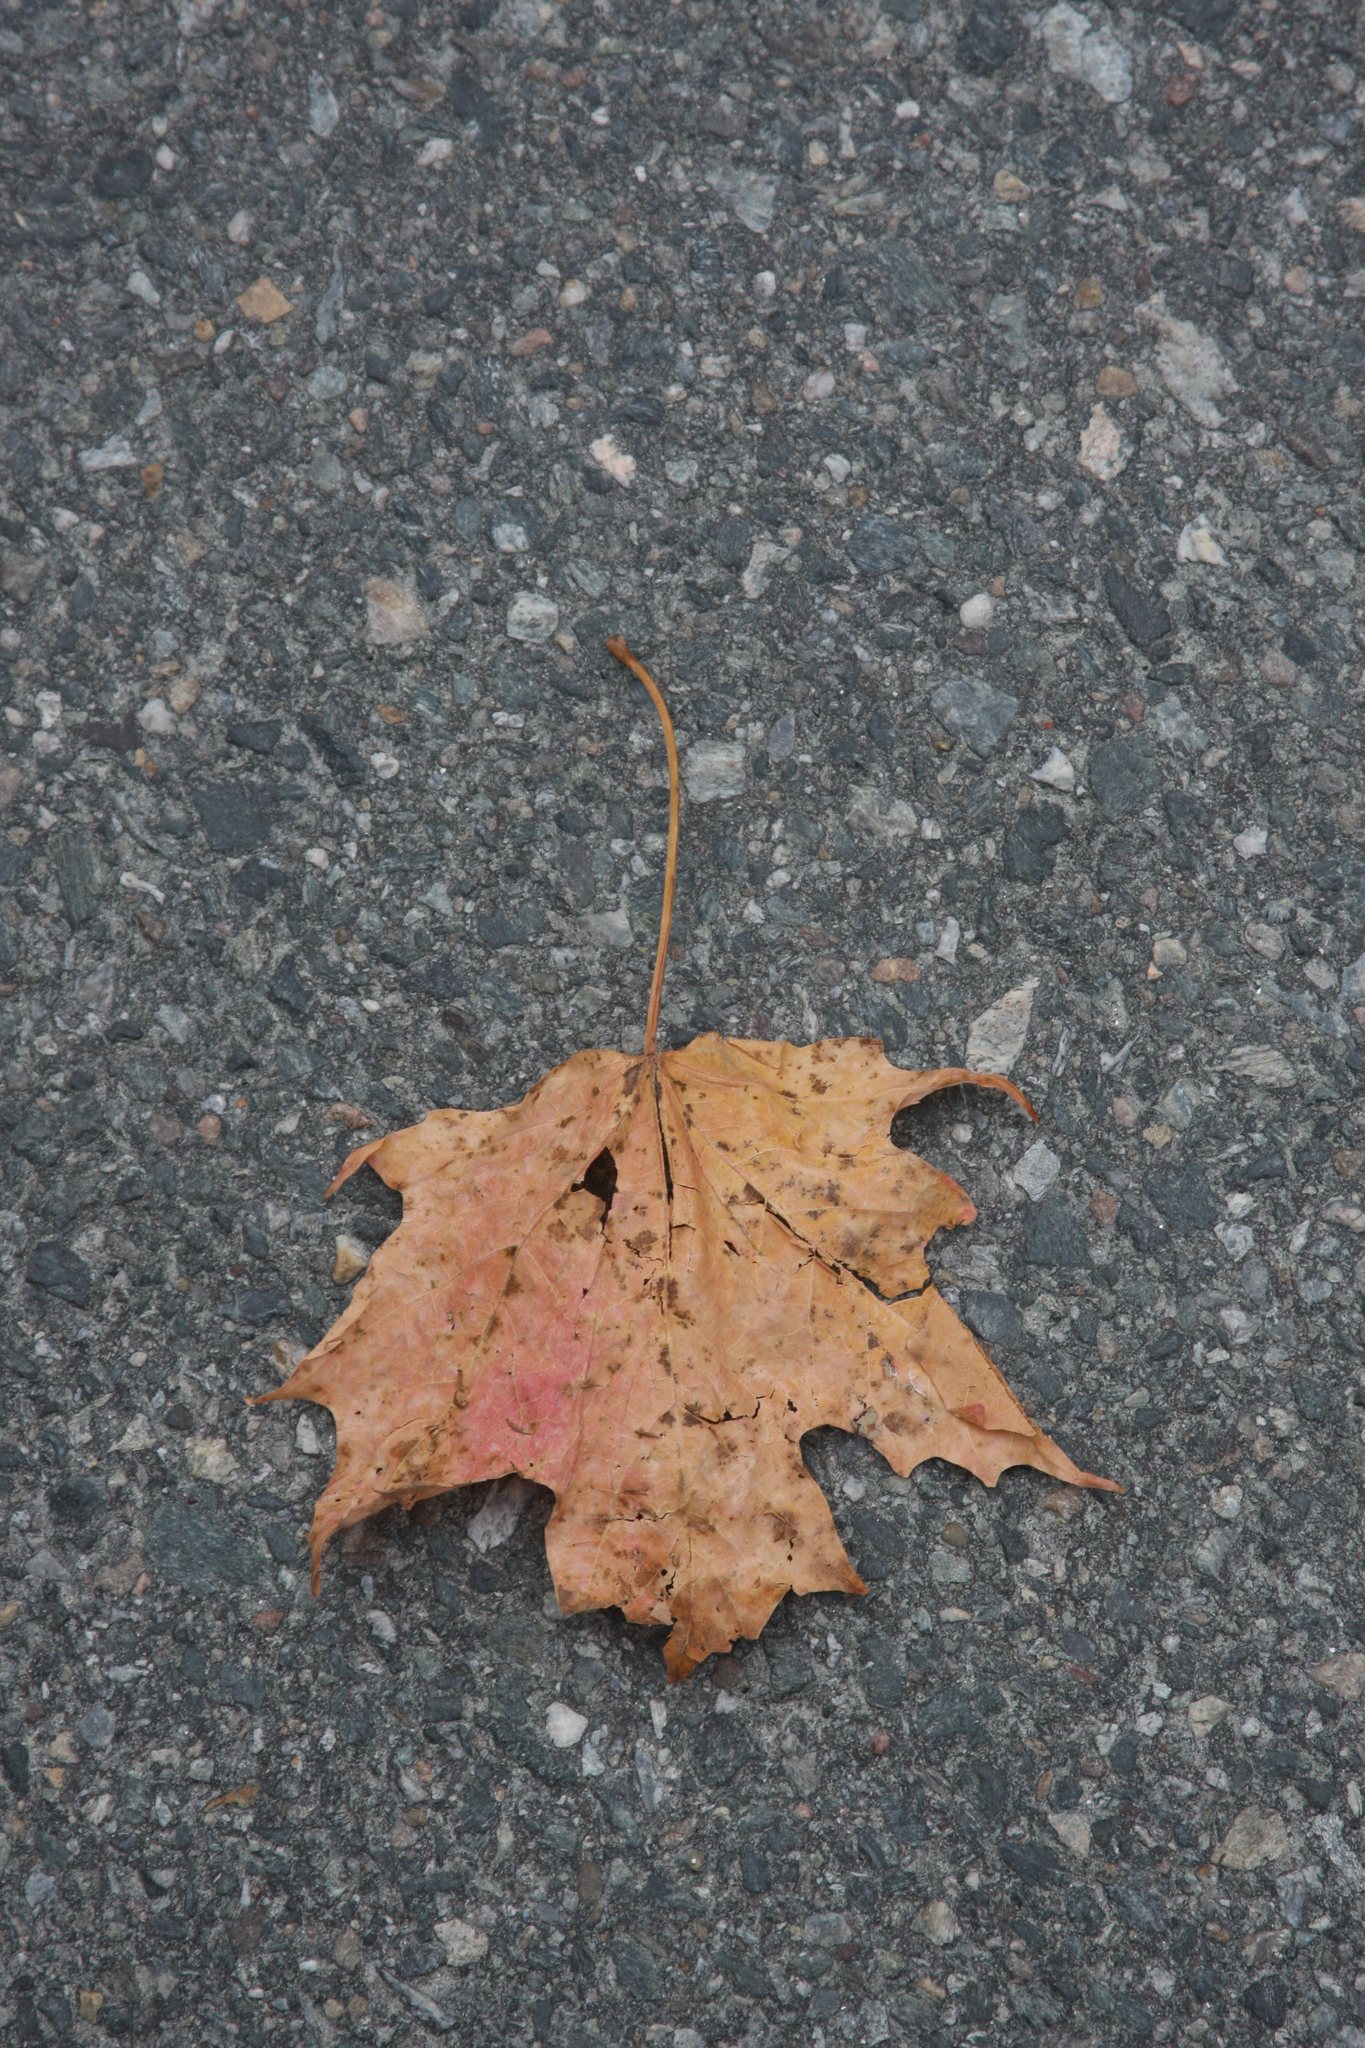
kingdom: Plantae
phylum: Tracheophyta
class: Magnoliopsida
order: Sapindales
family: Sapindaceae
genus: Acer
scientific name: Acer saccharum
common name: Sugar maple
